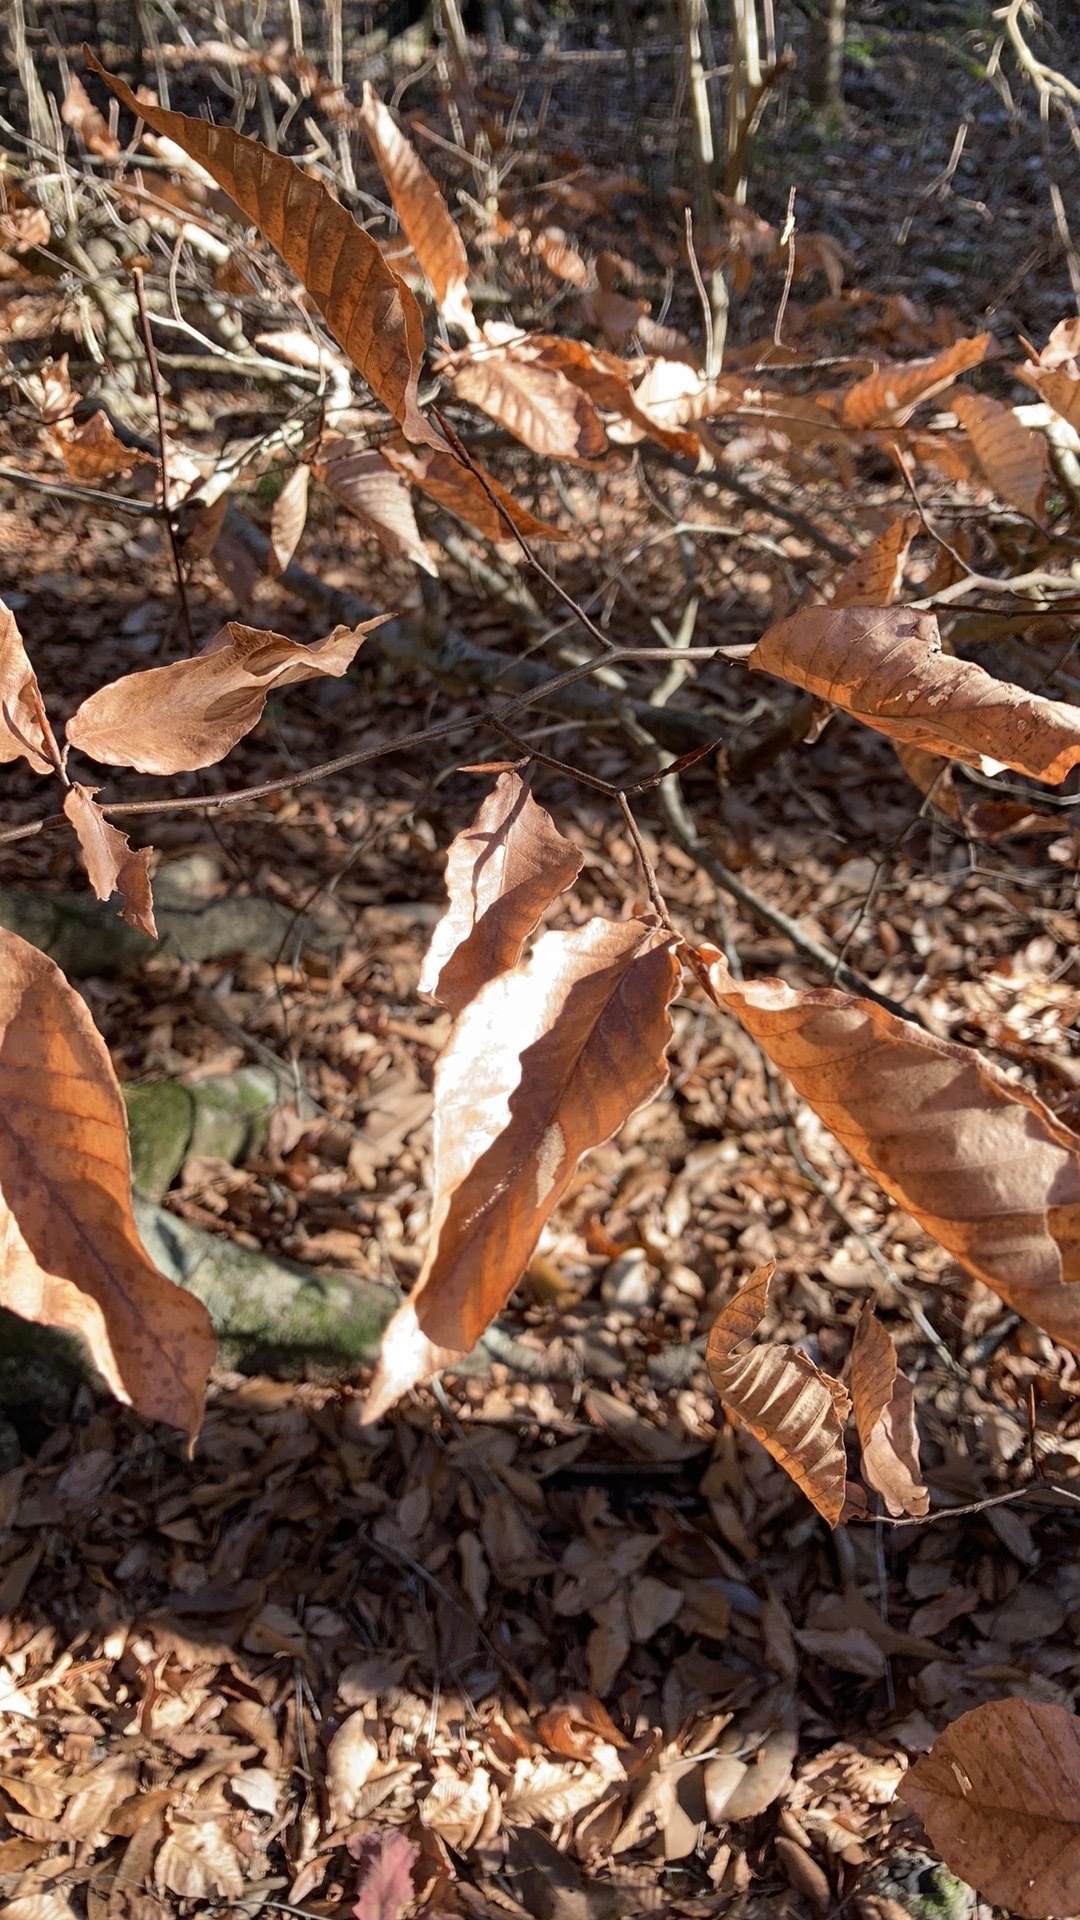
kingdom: Plantae
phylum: Tracheophyta
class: Magnoliopsida
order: Fagales
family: Fagaceae
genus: Fagus
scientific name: Fagus grandifolia
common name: American beech
